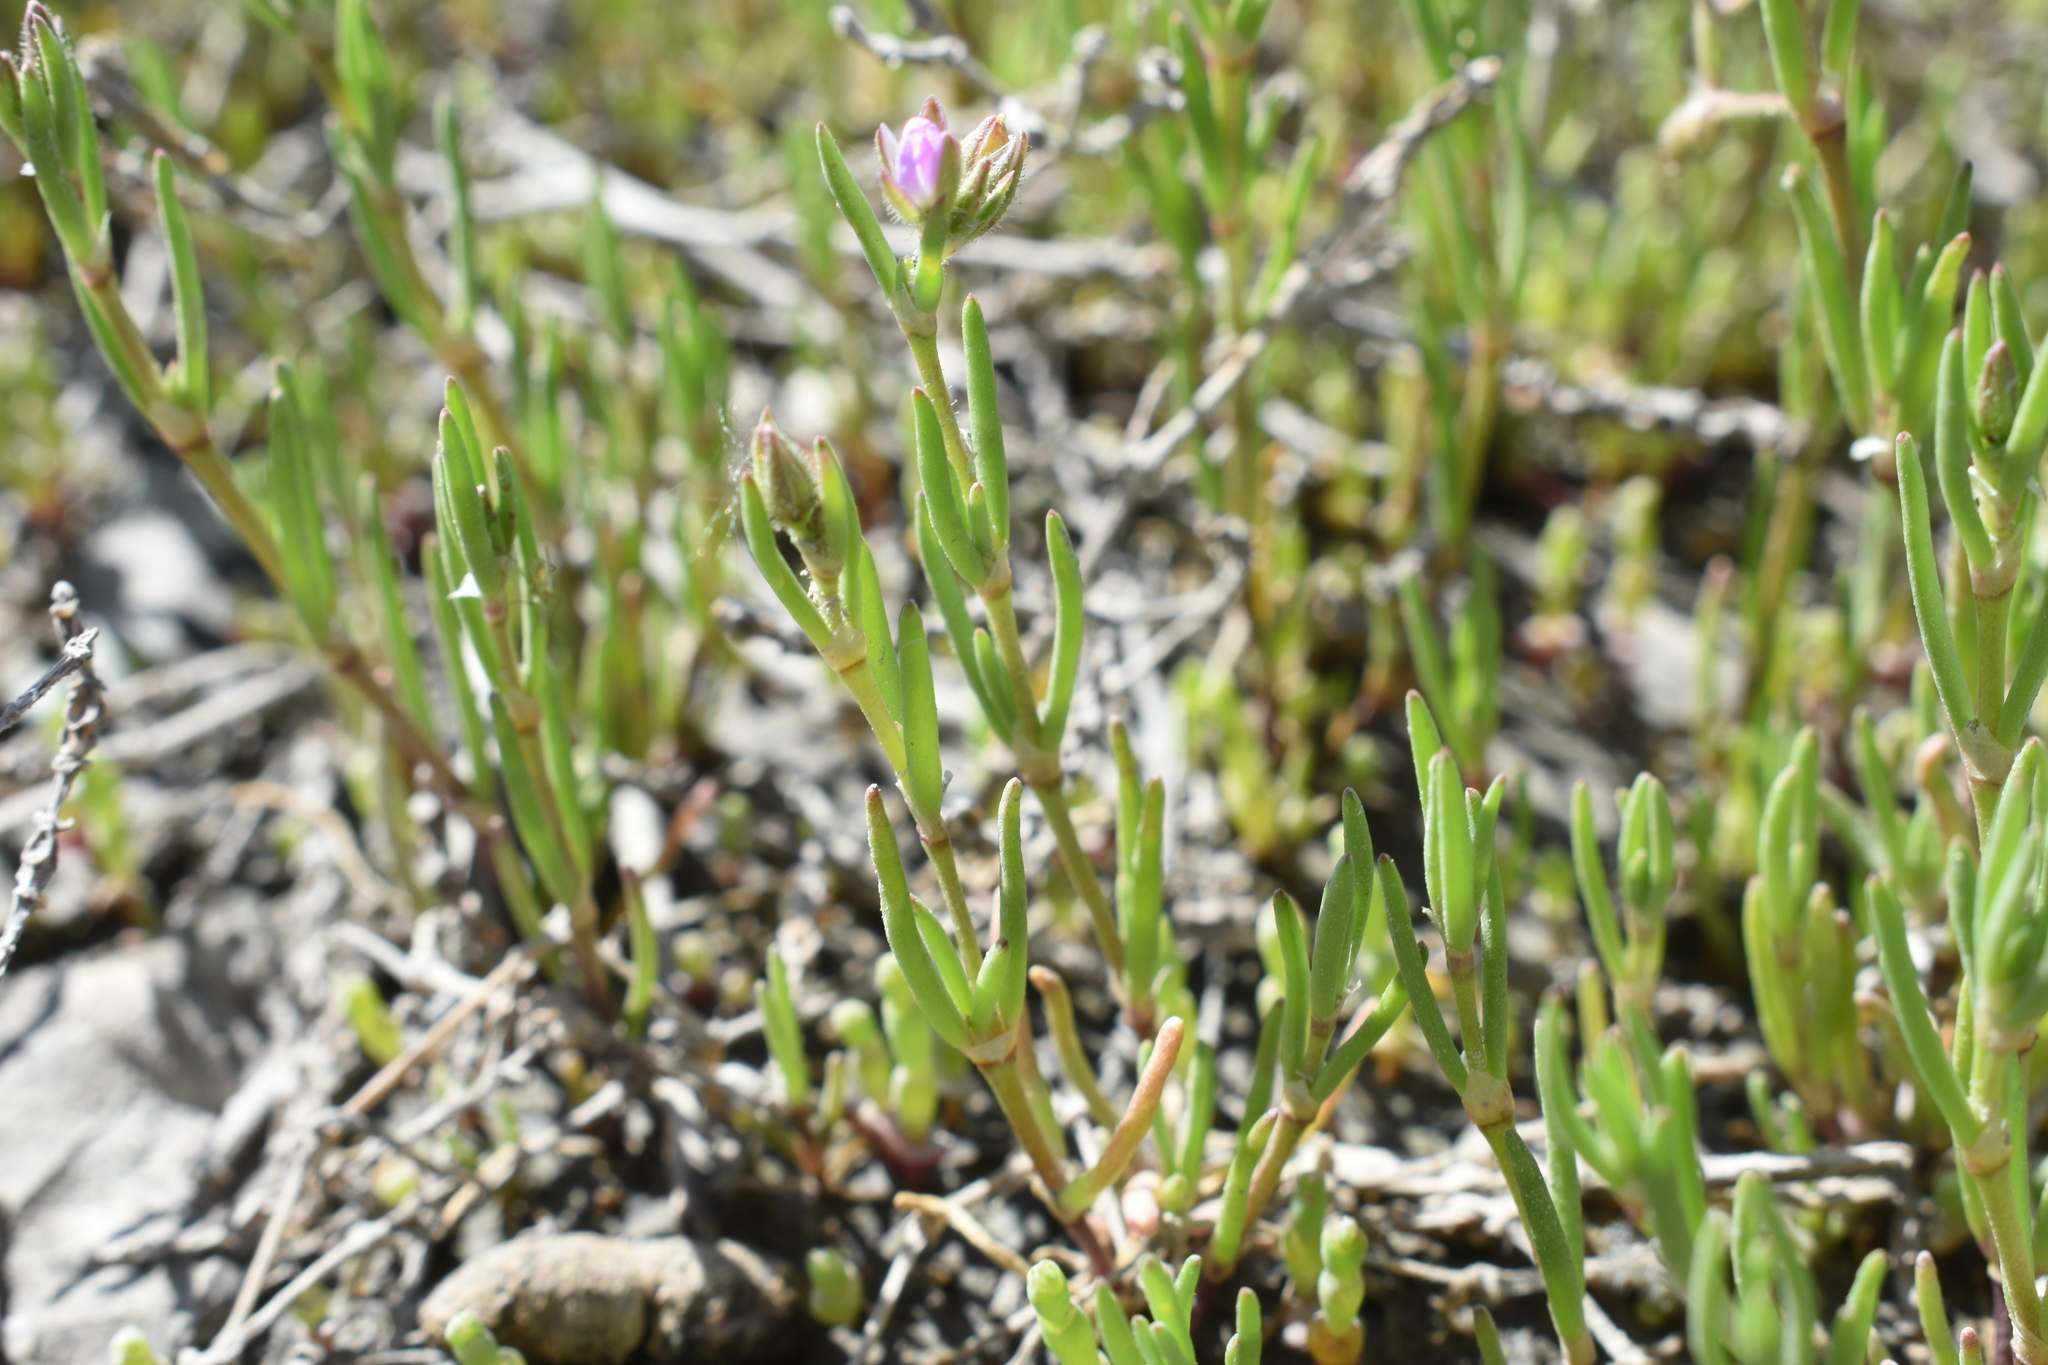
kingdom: Plantae
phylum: Tracheophyta
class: Magnoliopsida
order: Caryophyllales
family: Caryophyllaceae
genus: Spergularia
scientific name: Spergularia marina
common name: Lesser sea-spurrey
